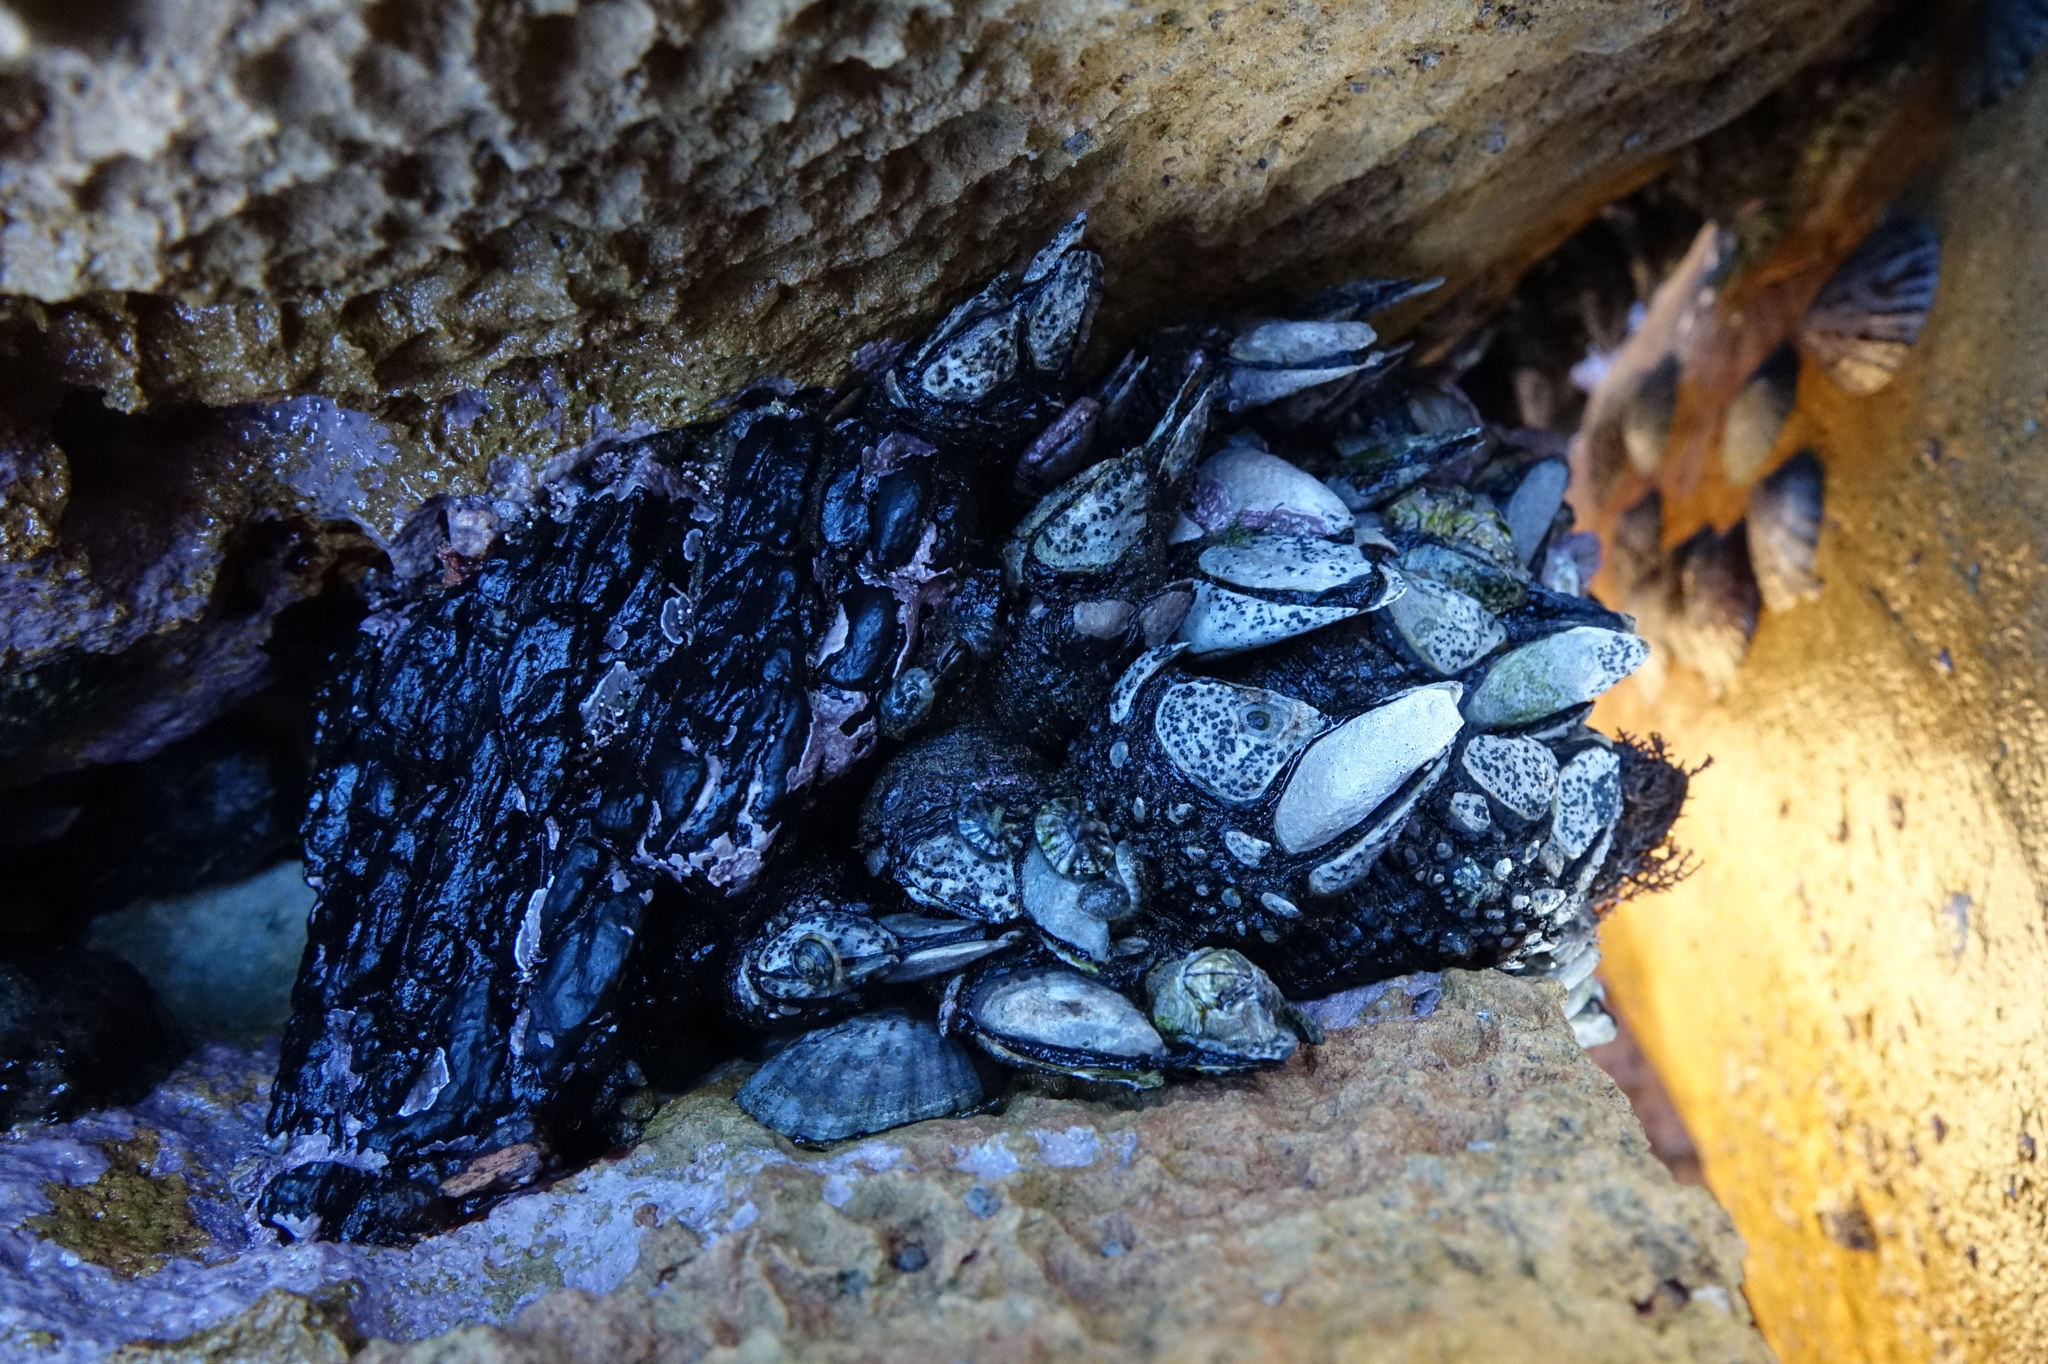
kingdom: Animalia
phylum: Arthropoda
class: Maxillopoda
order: Pedunculata
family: Calanticidae
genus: Calantica
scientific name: Calantica spinosa
